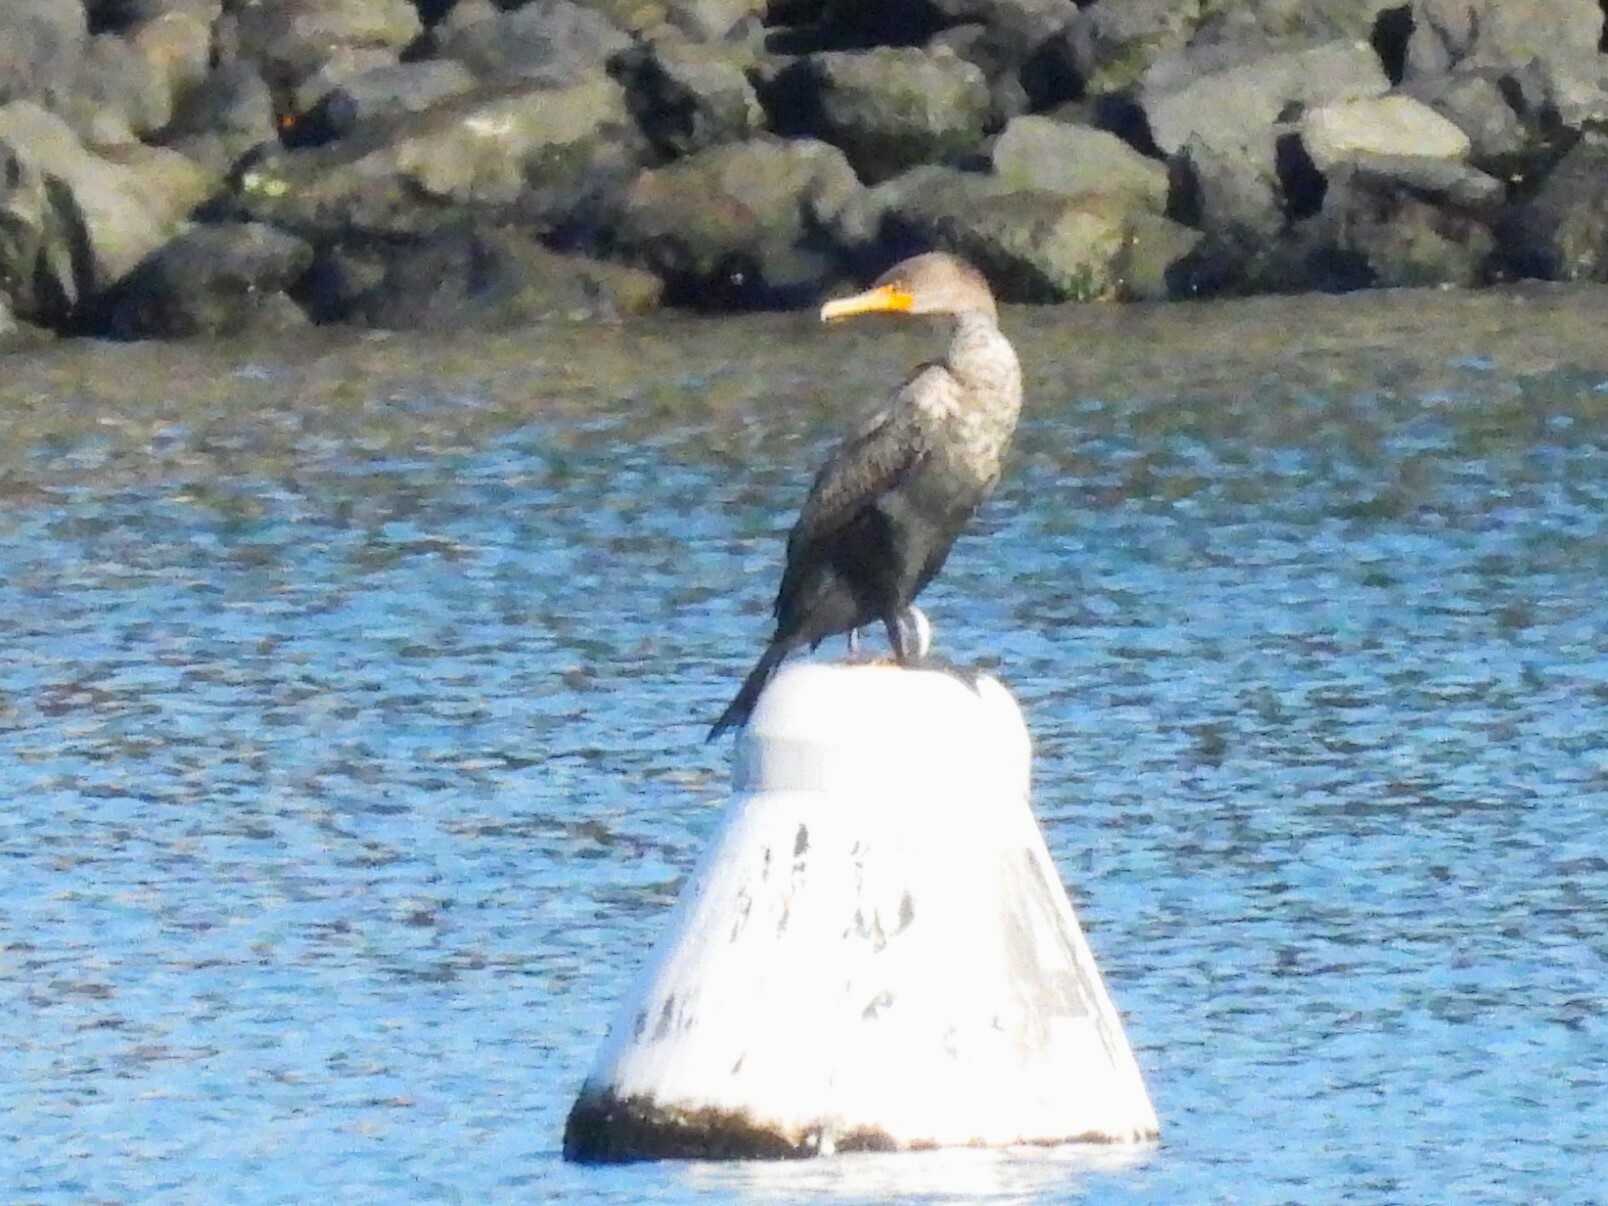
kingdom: Animalia
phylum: Chordata
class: Aves
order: Suliformes
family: Phalacrocoracidae
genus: Phalacrocorax
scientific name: Phalacrocorax auritus
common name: Double-crested cormorant
